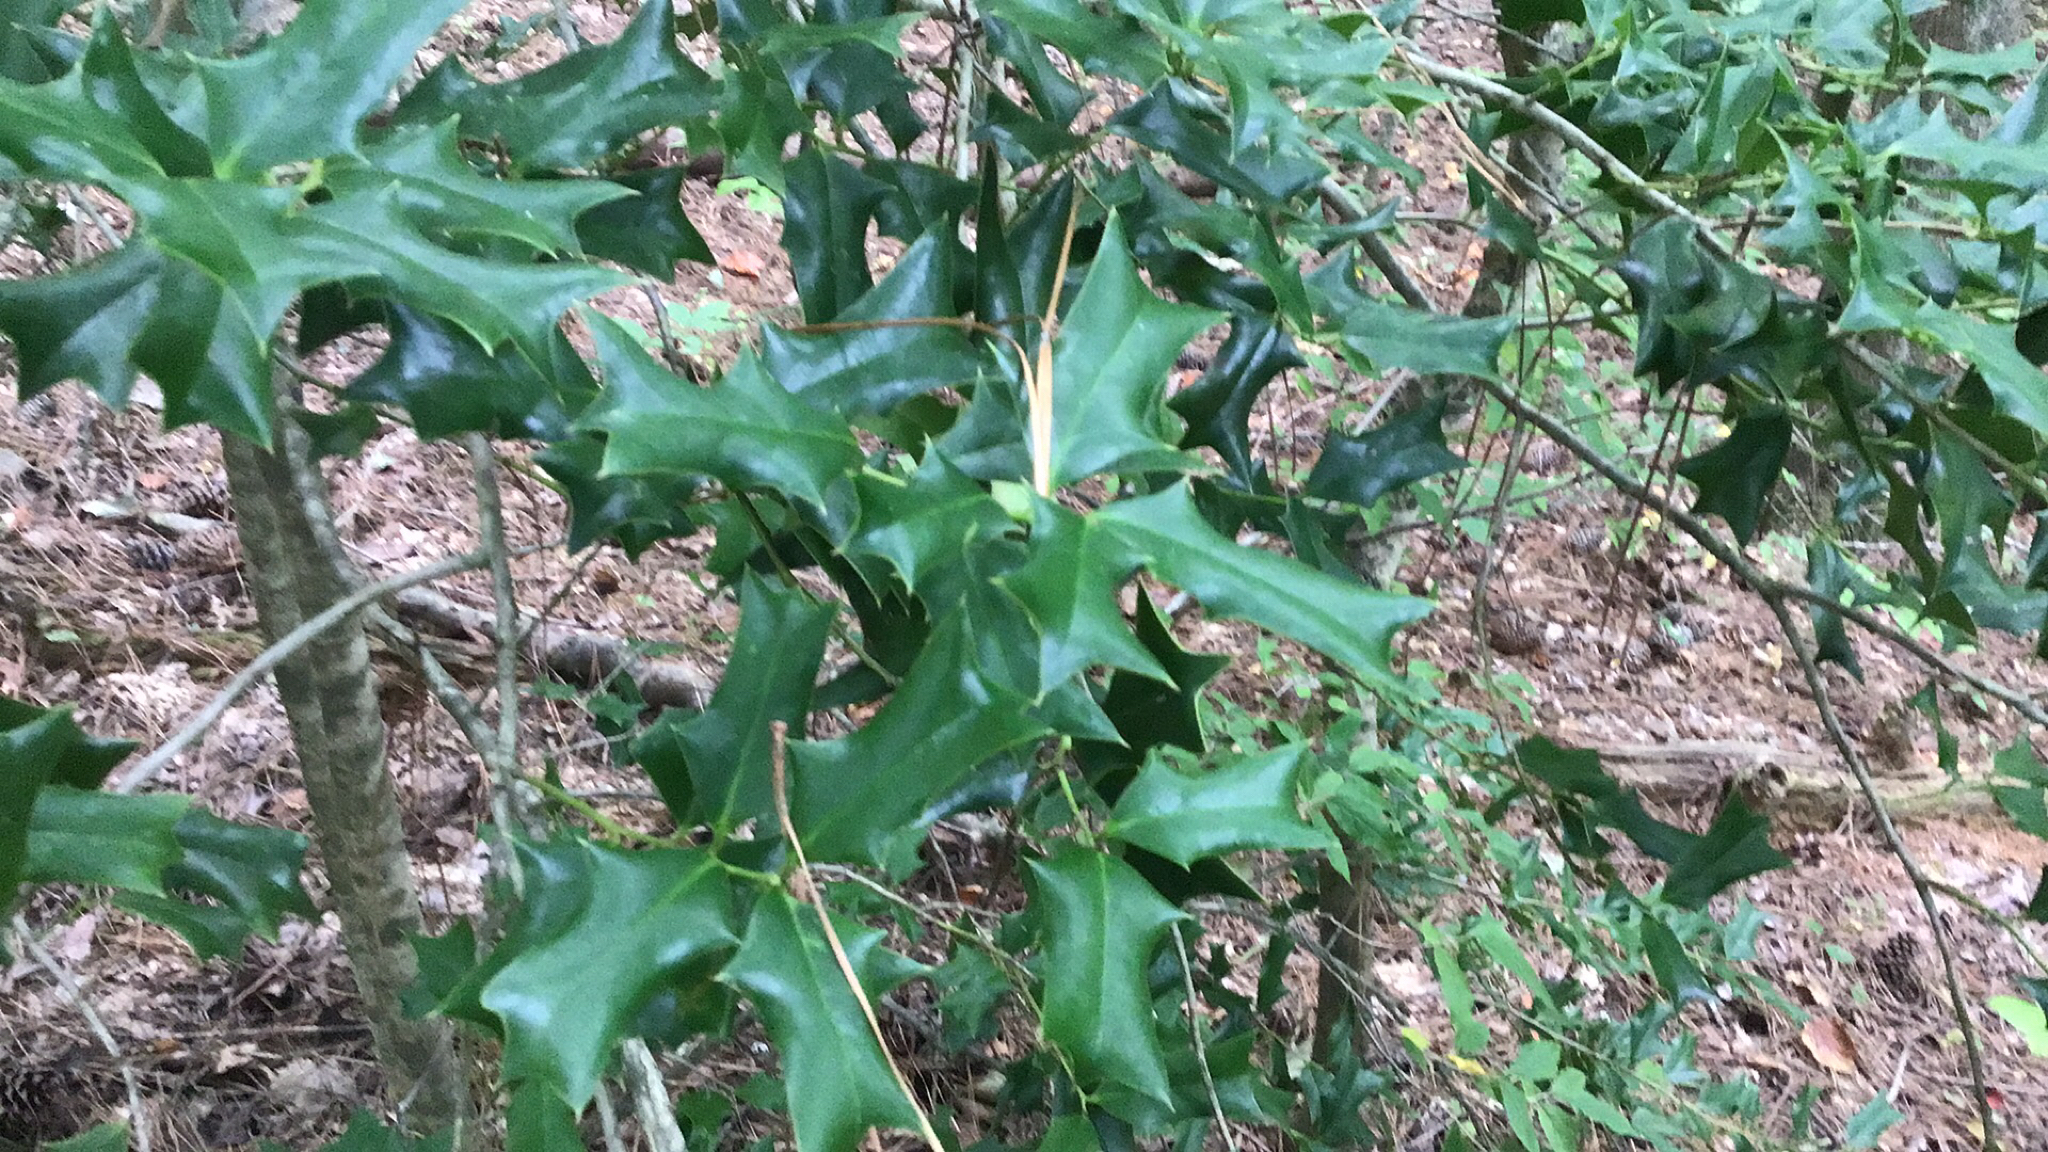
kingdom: Plantae
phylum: Tracheophyta
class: Magnoliopsida
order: Aquifoliales
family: Aquifoliaceae
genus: Ilex
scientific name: Ilex cornuta
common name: Chinese holly
